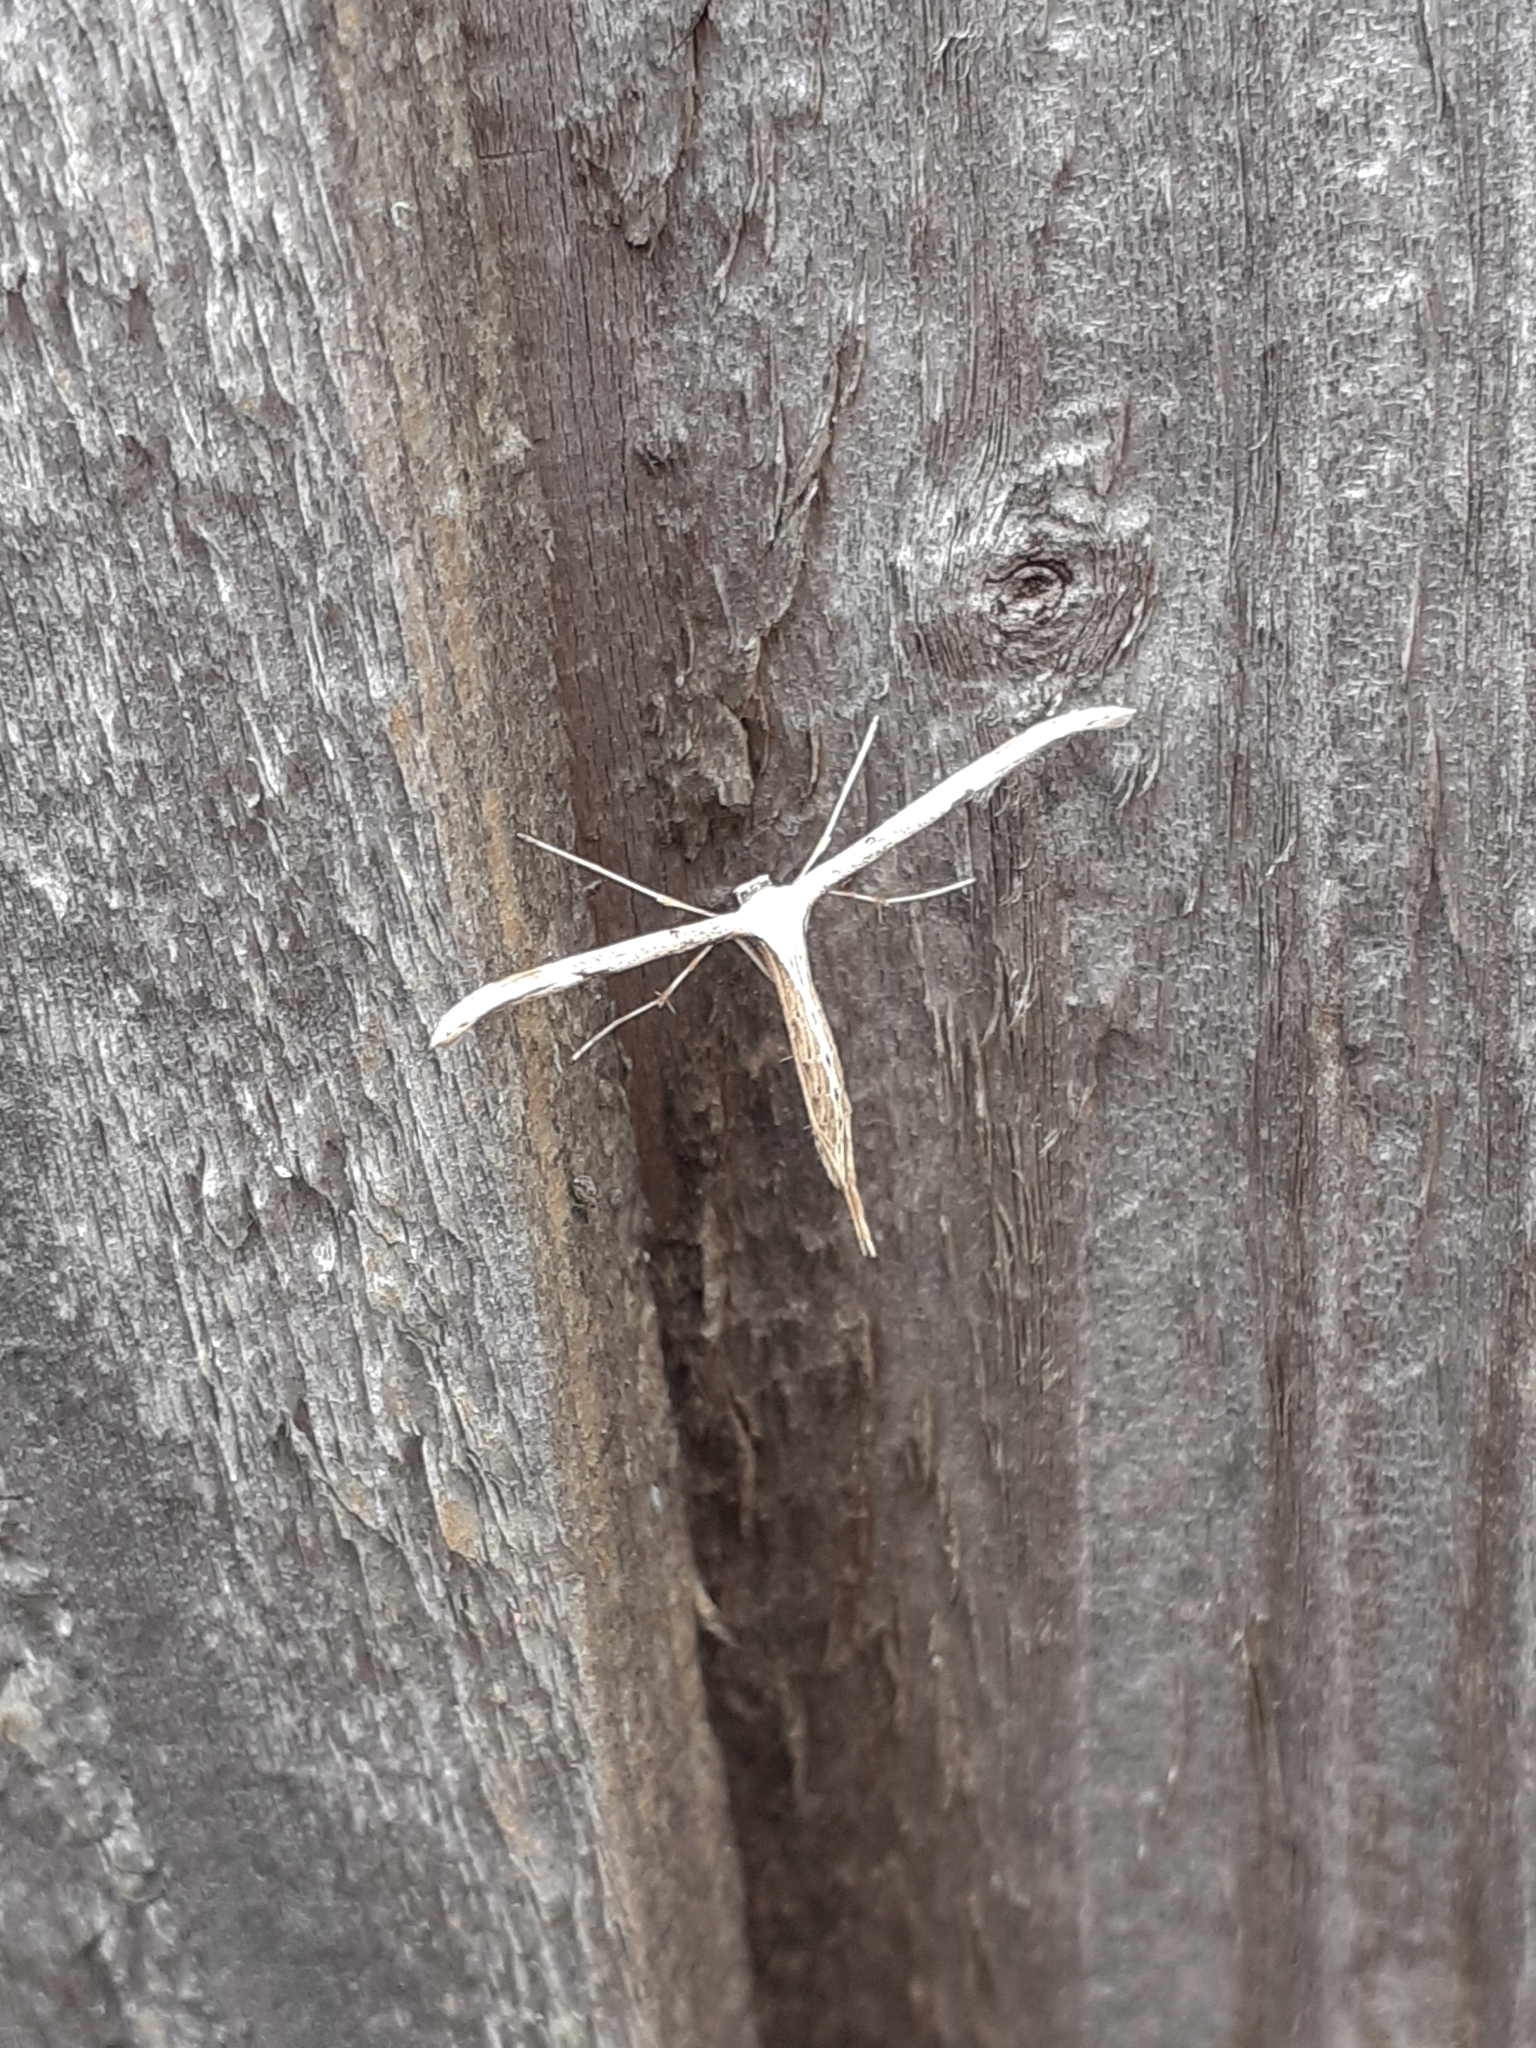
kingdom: Animalia
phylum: Arthropoda
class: Insecta
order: Lepidoptera
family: Pterophoridae
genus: Emmelina
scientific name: Emmelina monodactyla
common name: Common plume
